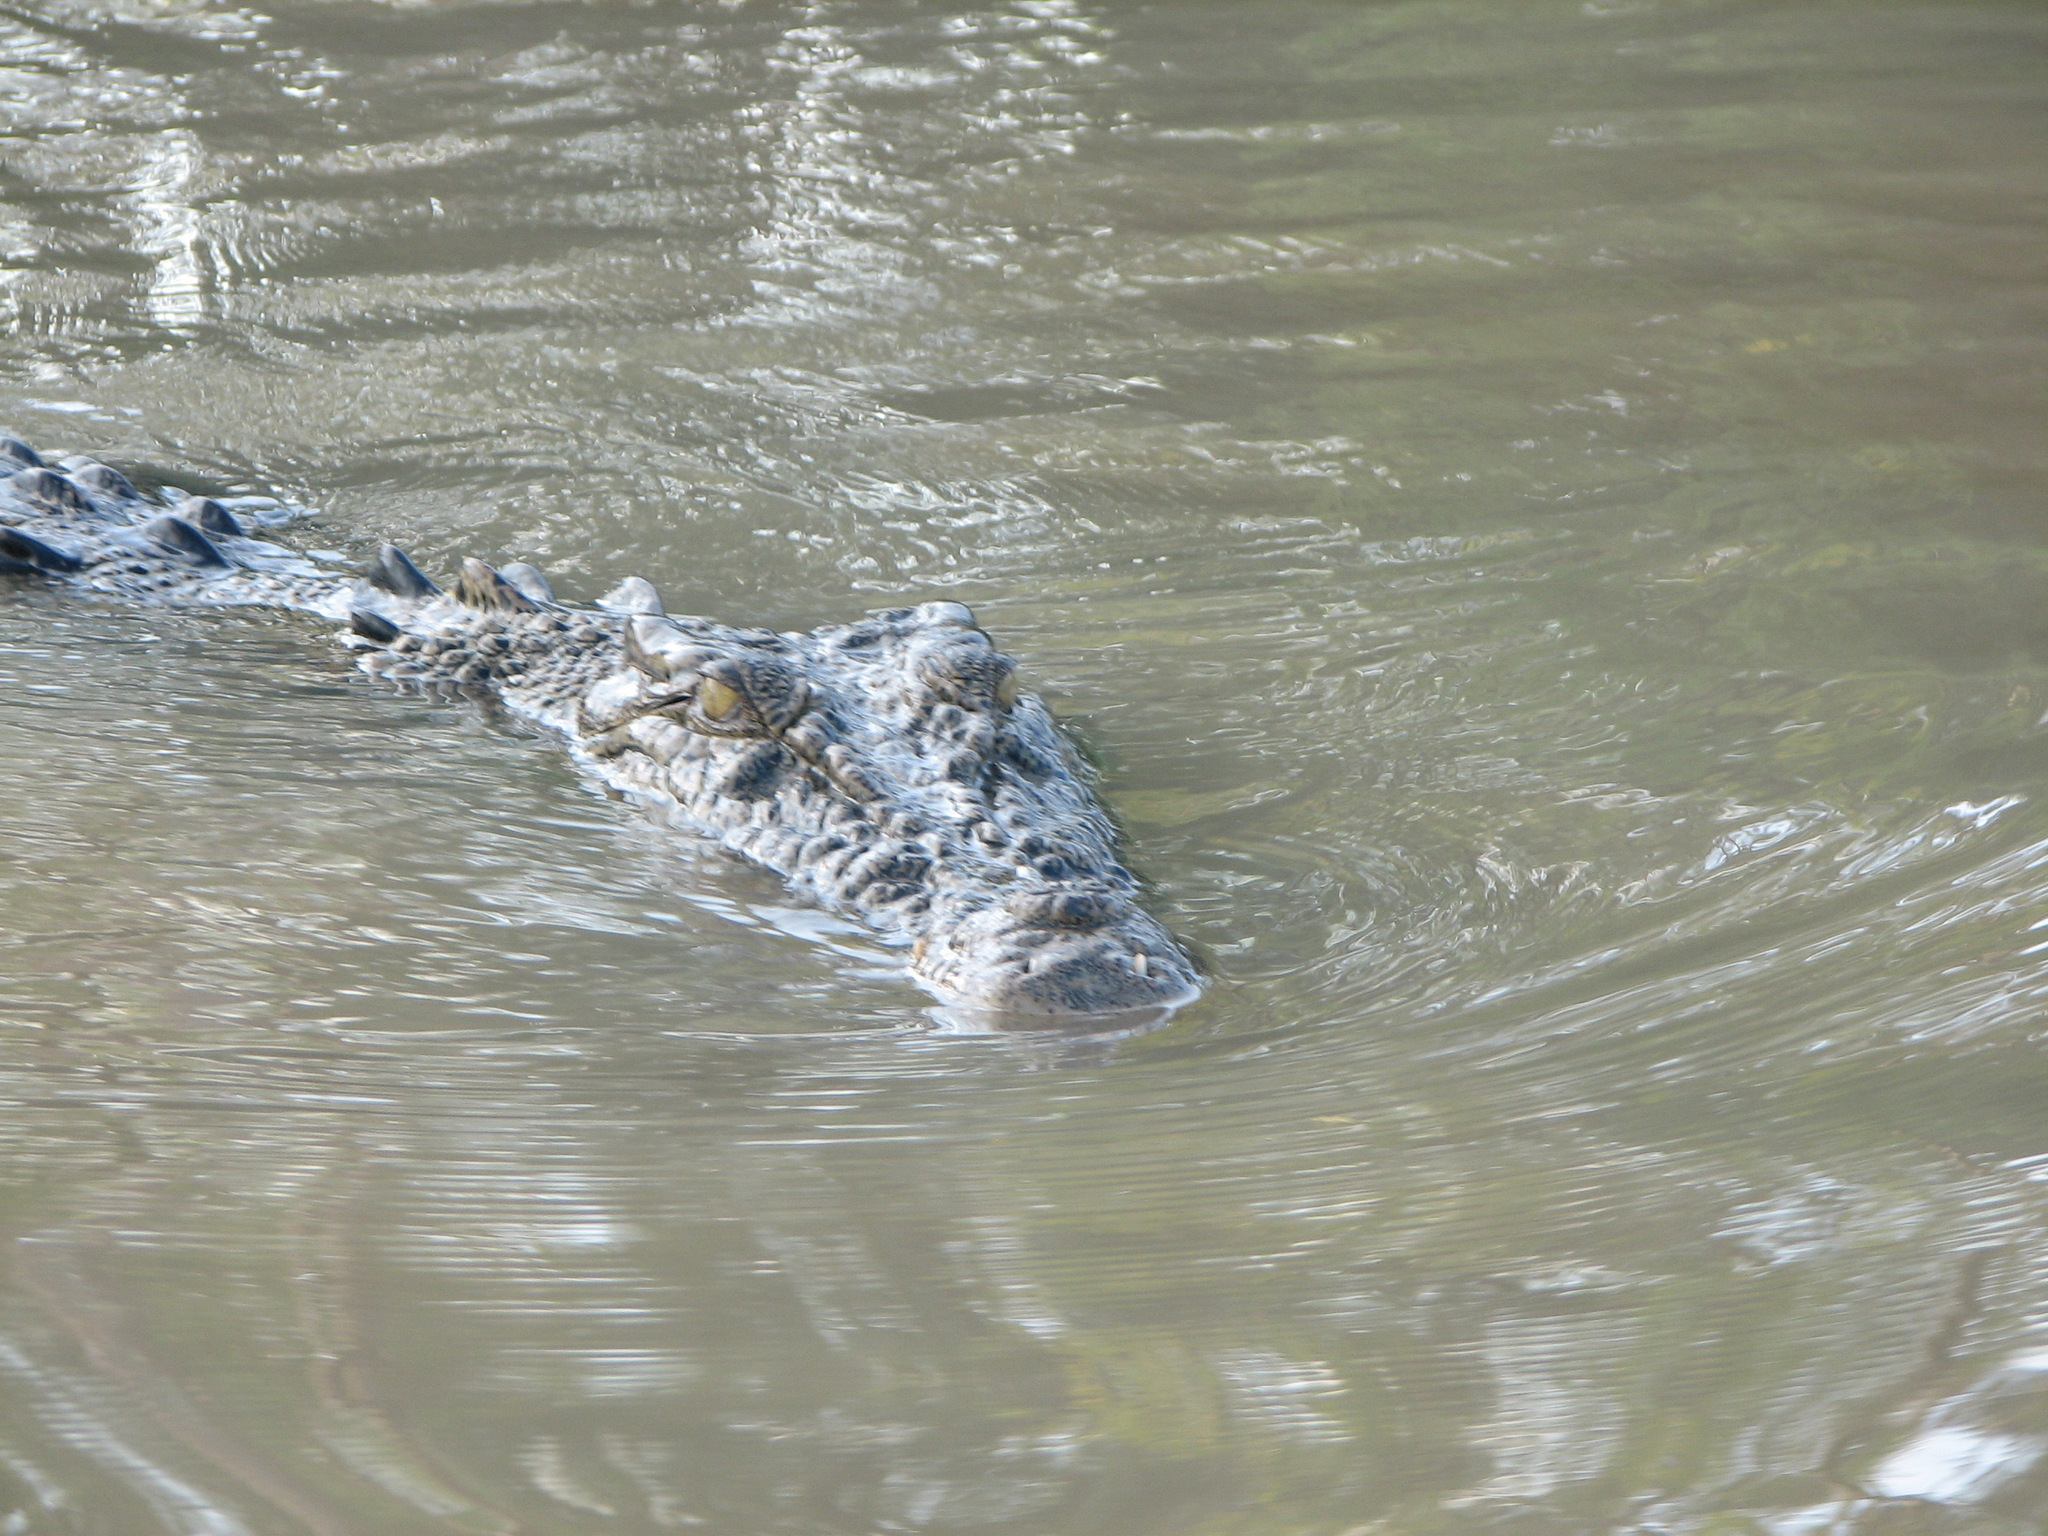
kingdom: Animalia
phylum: Chordata
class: Crocodylia
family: Crocodylidae
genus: Crocodylus
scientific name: Crocodylus porosus
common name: Saltwater crocodile
